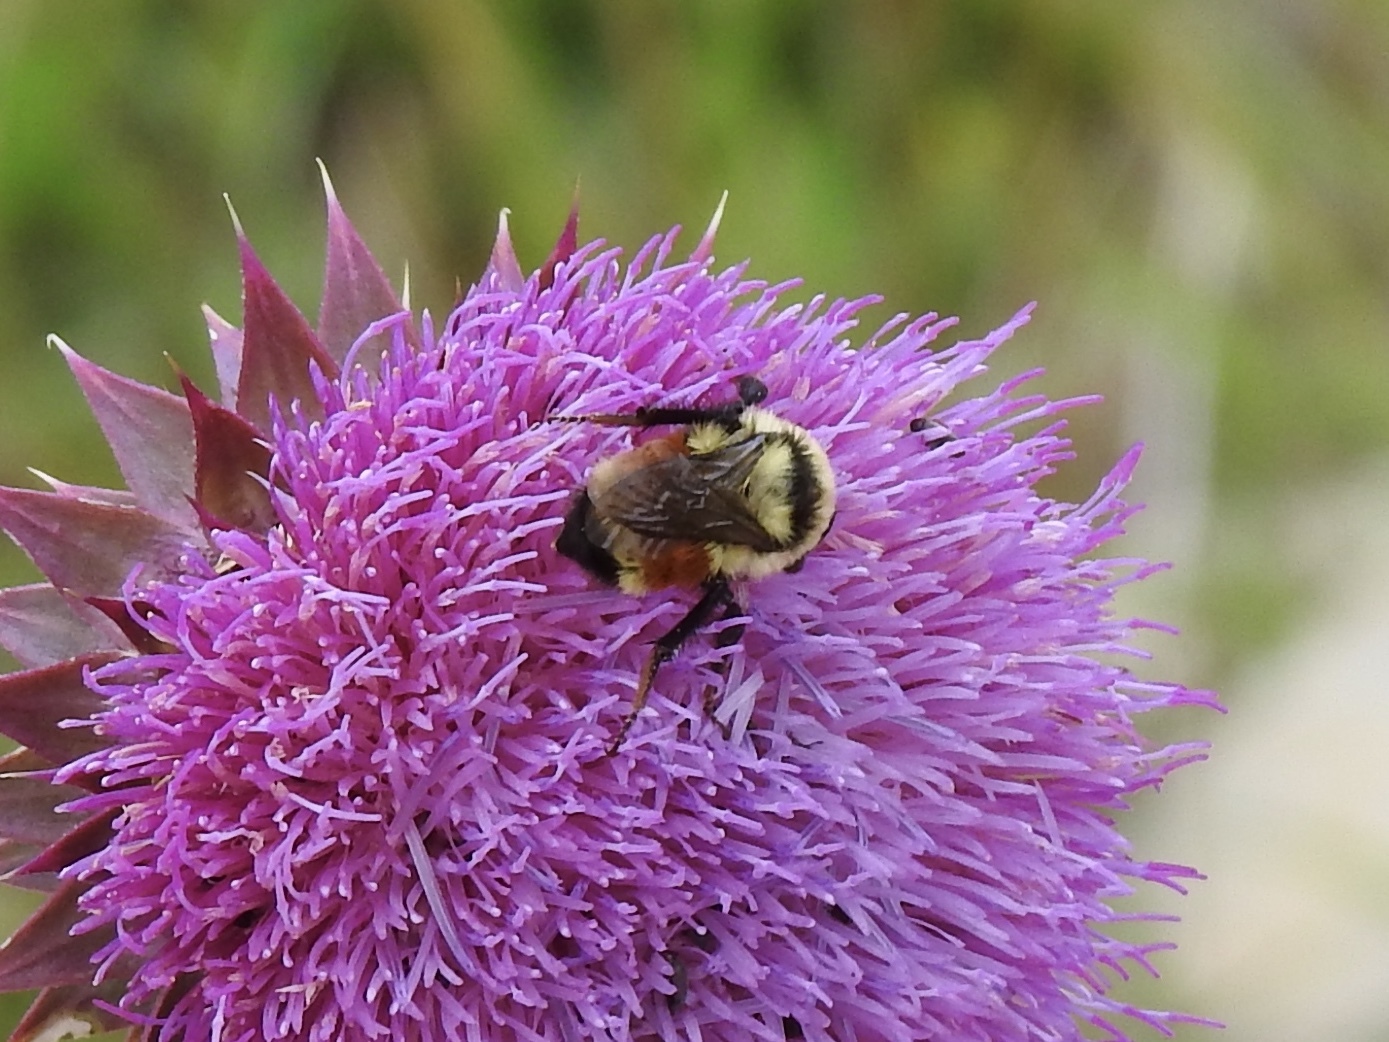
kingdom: Animalia
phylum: Arthropoda
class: Insecta
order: Hymenoptera
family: Apidae
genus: Bombus
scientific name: Bombus huntii
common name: Hunt bumble bee
